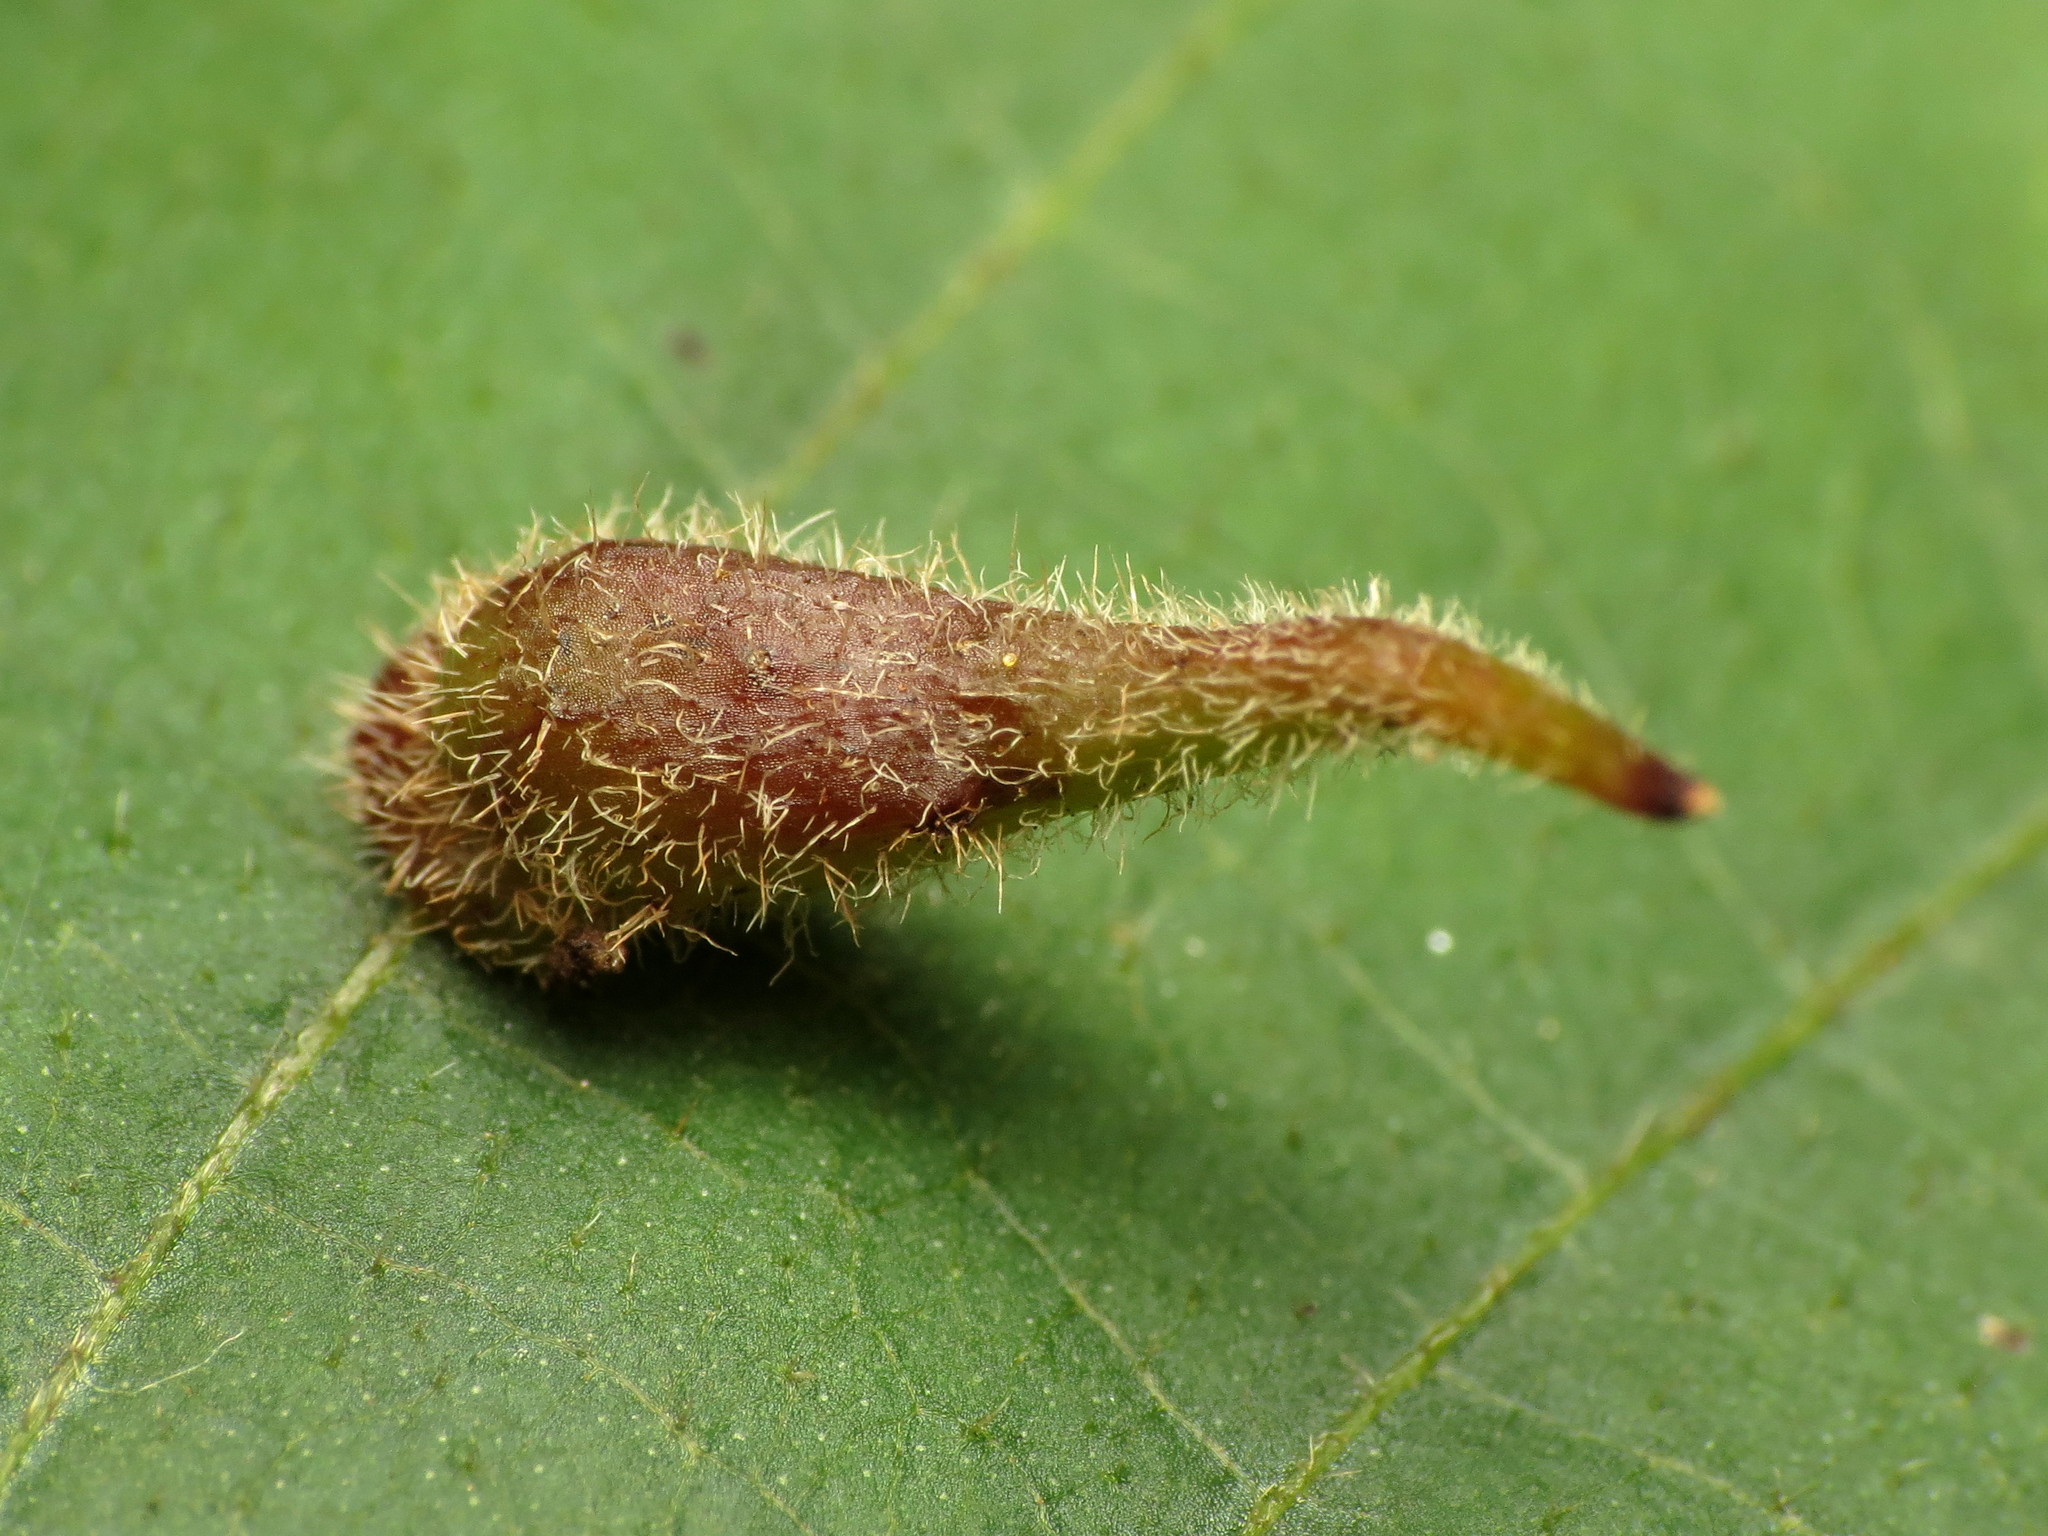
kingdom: Animalia
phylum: Arthropoda
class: Insecta
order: Diptera
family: Cecidomyiidae
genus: Caryomyia
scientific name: Caryomyia spinulosa
